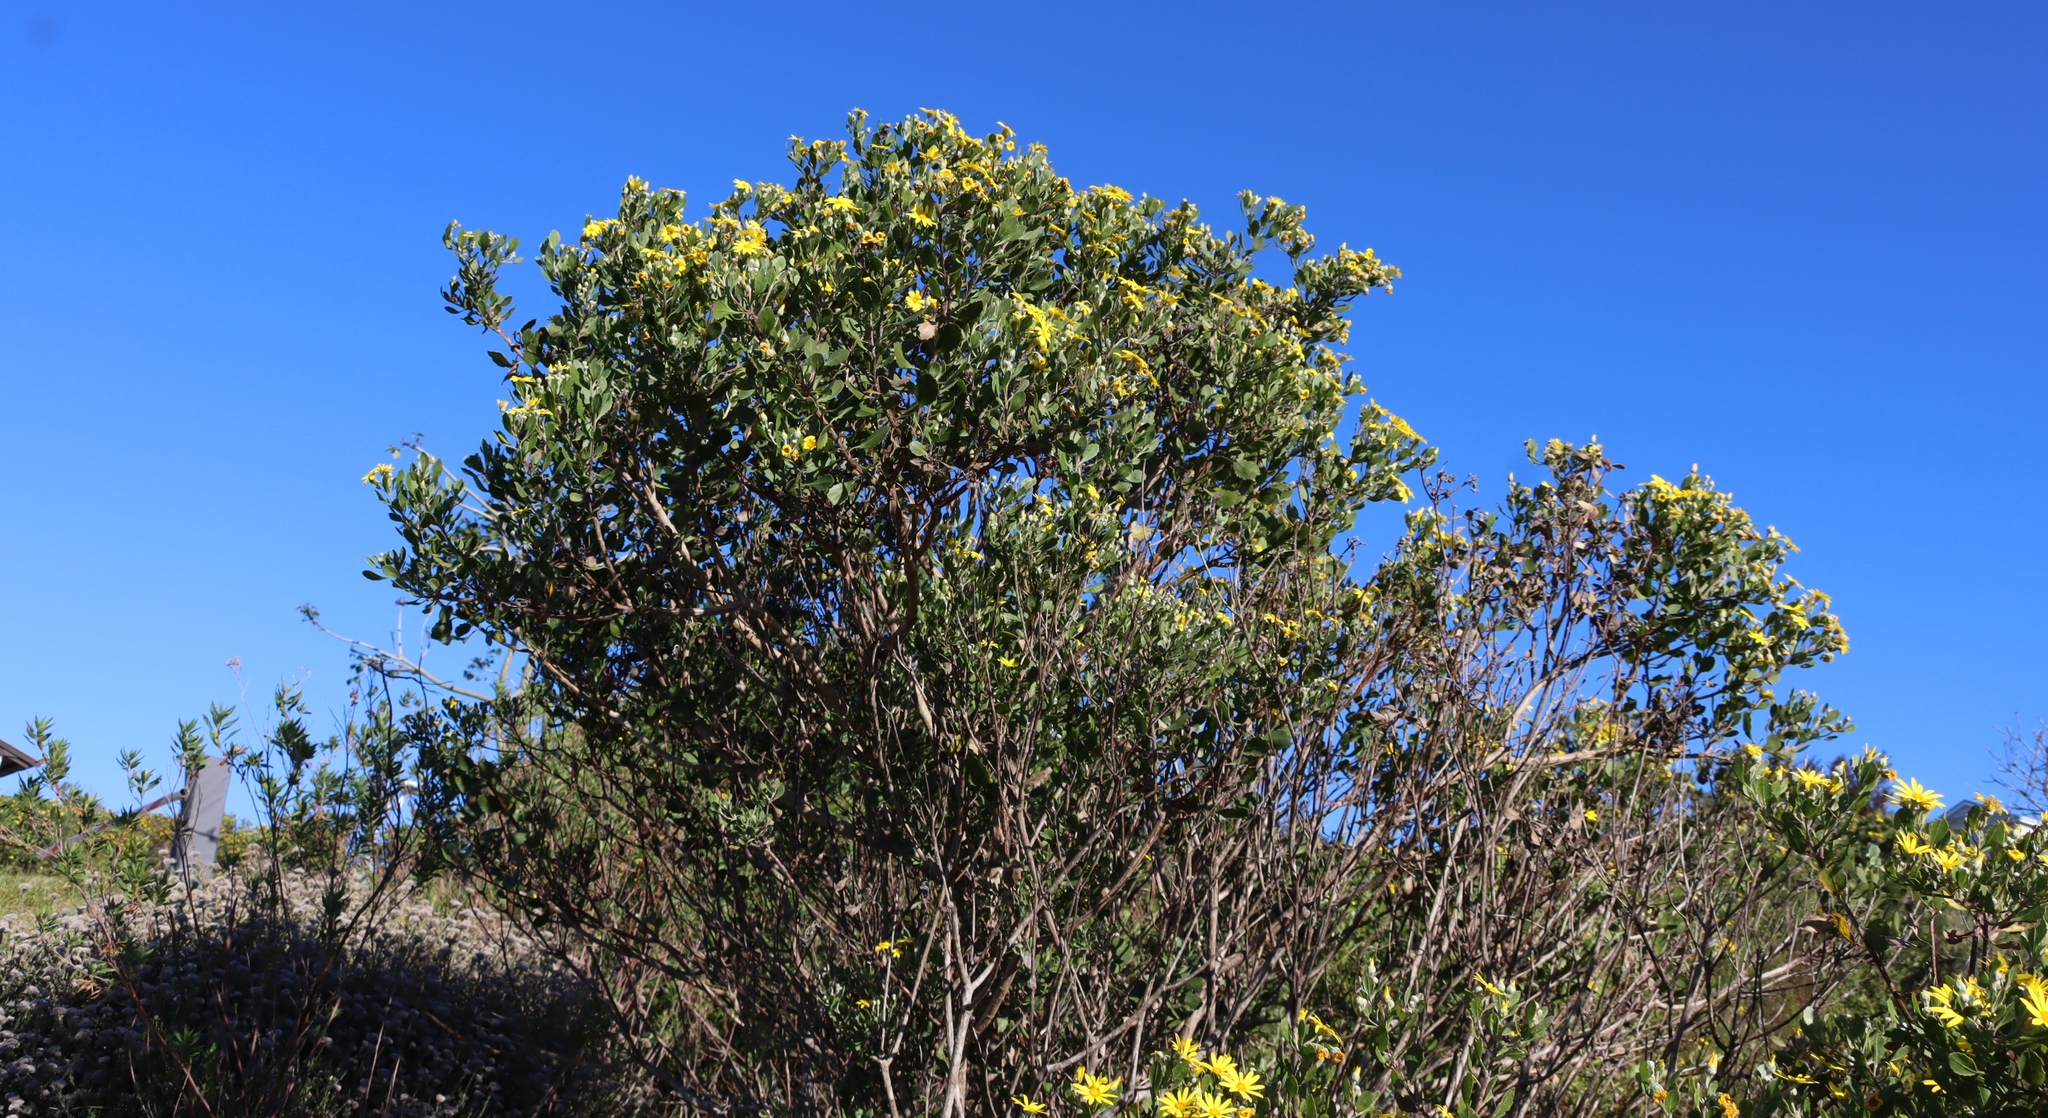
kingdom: Plantae
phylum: Tracheophyta
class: Magnoliopsida
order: Asterales
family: Asteraceae
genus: Osteospermum
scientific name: Osteospermum moniliferum
